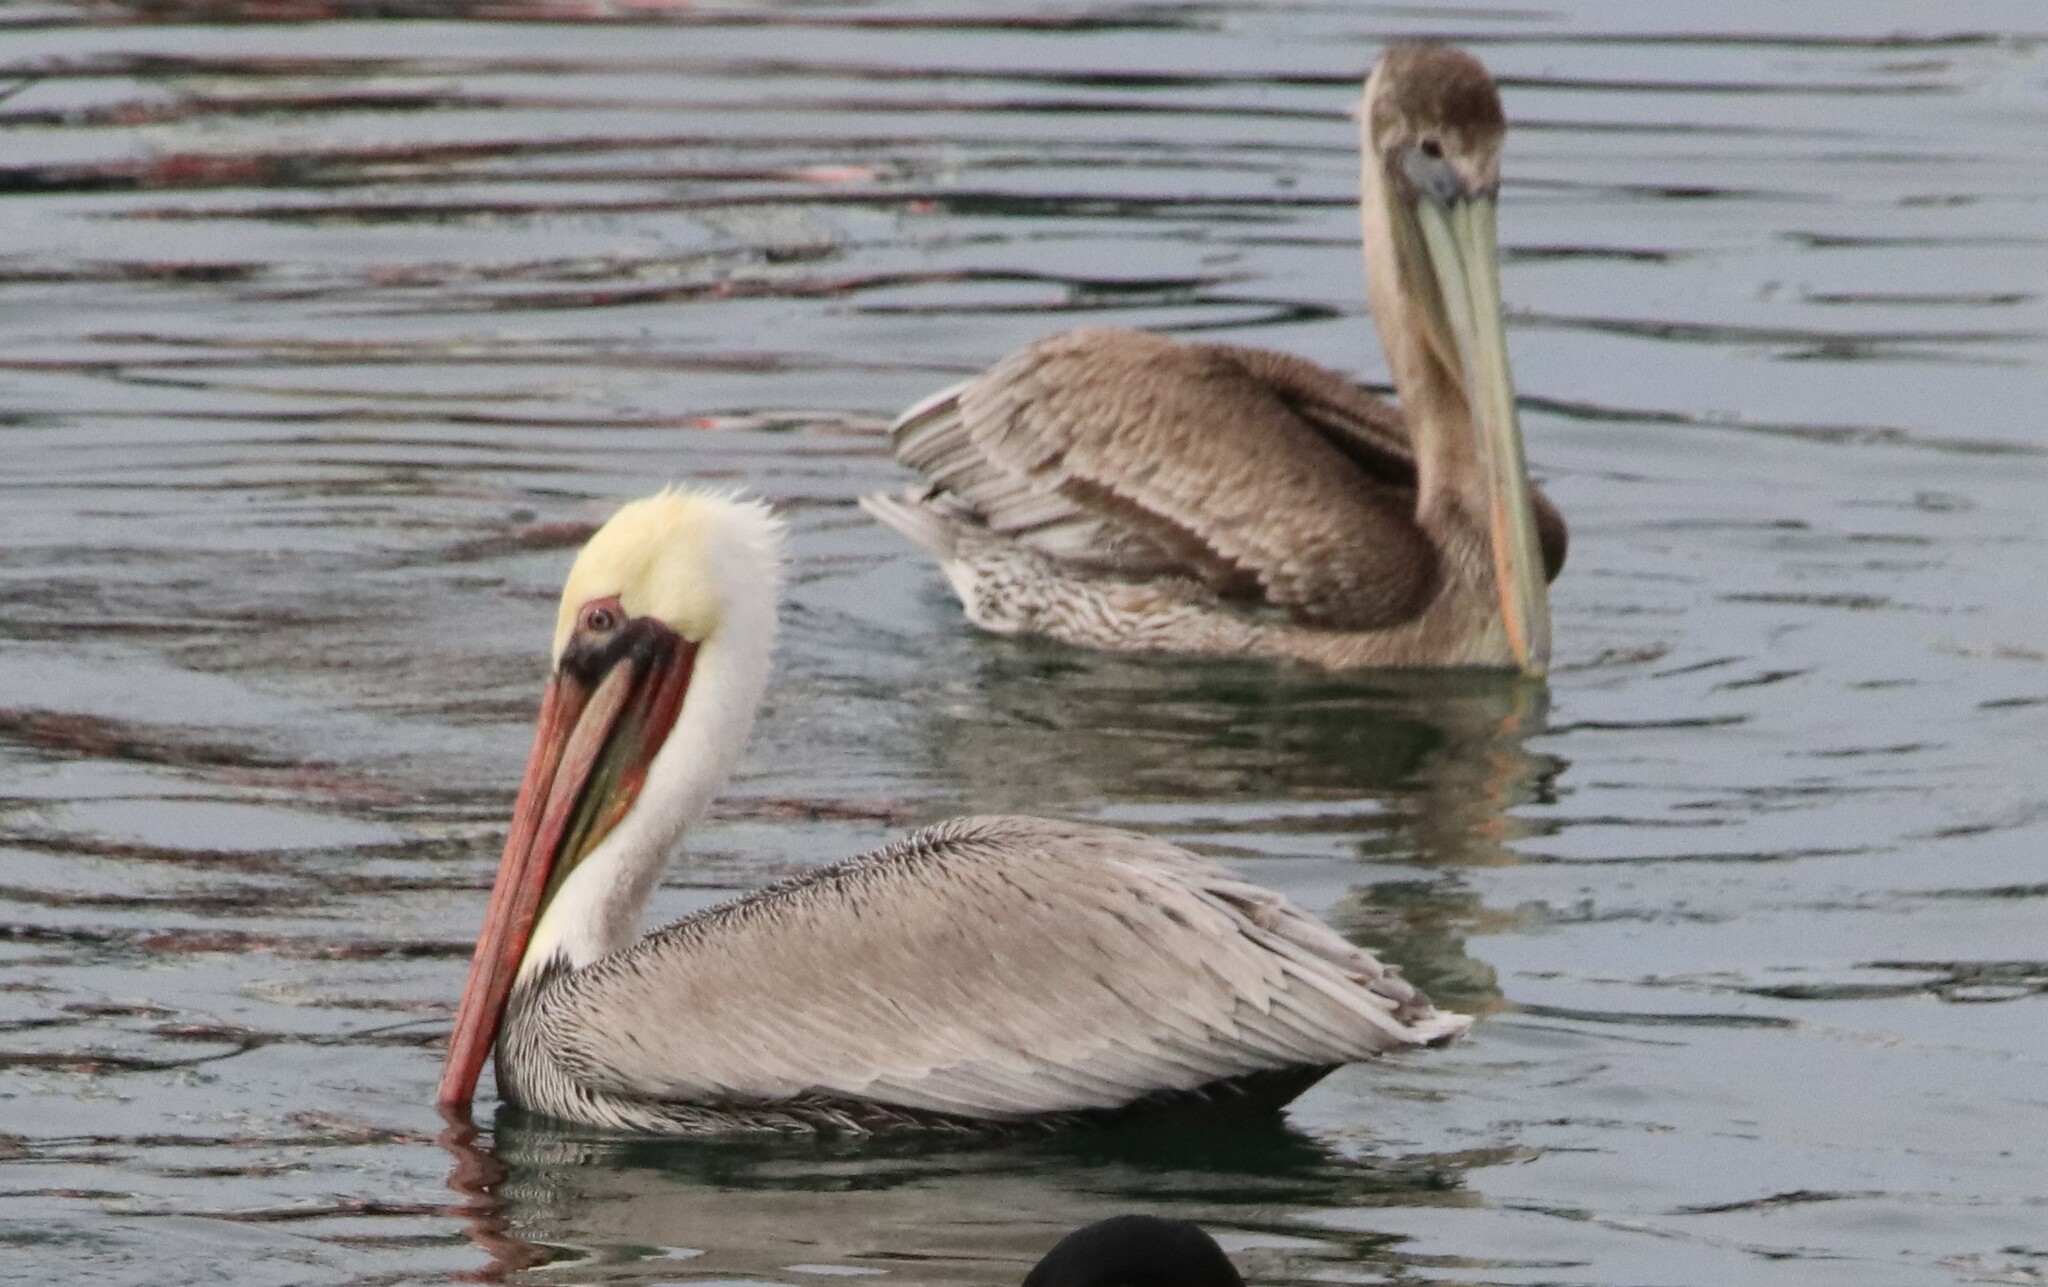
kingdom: Animalia
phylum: Chordata
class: Aves
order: Pelecaniformes
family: Pelecanidae
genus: Pelecanus
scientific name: Pelecanus occidentalis
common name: Brown pelican
